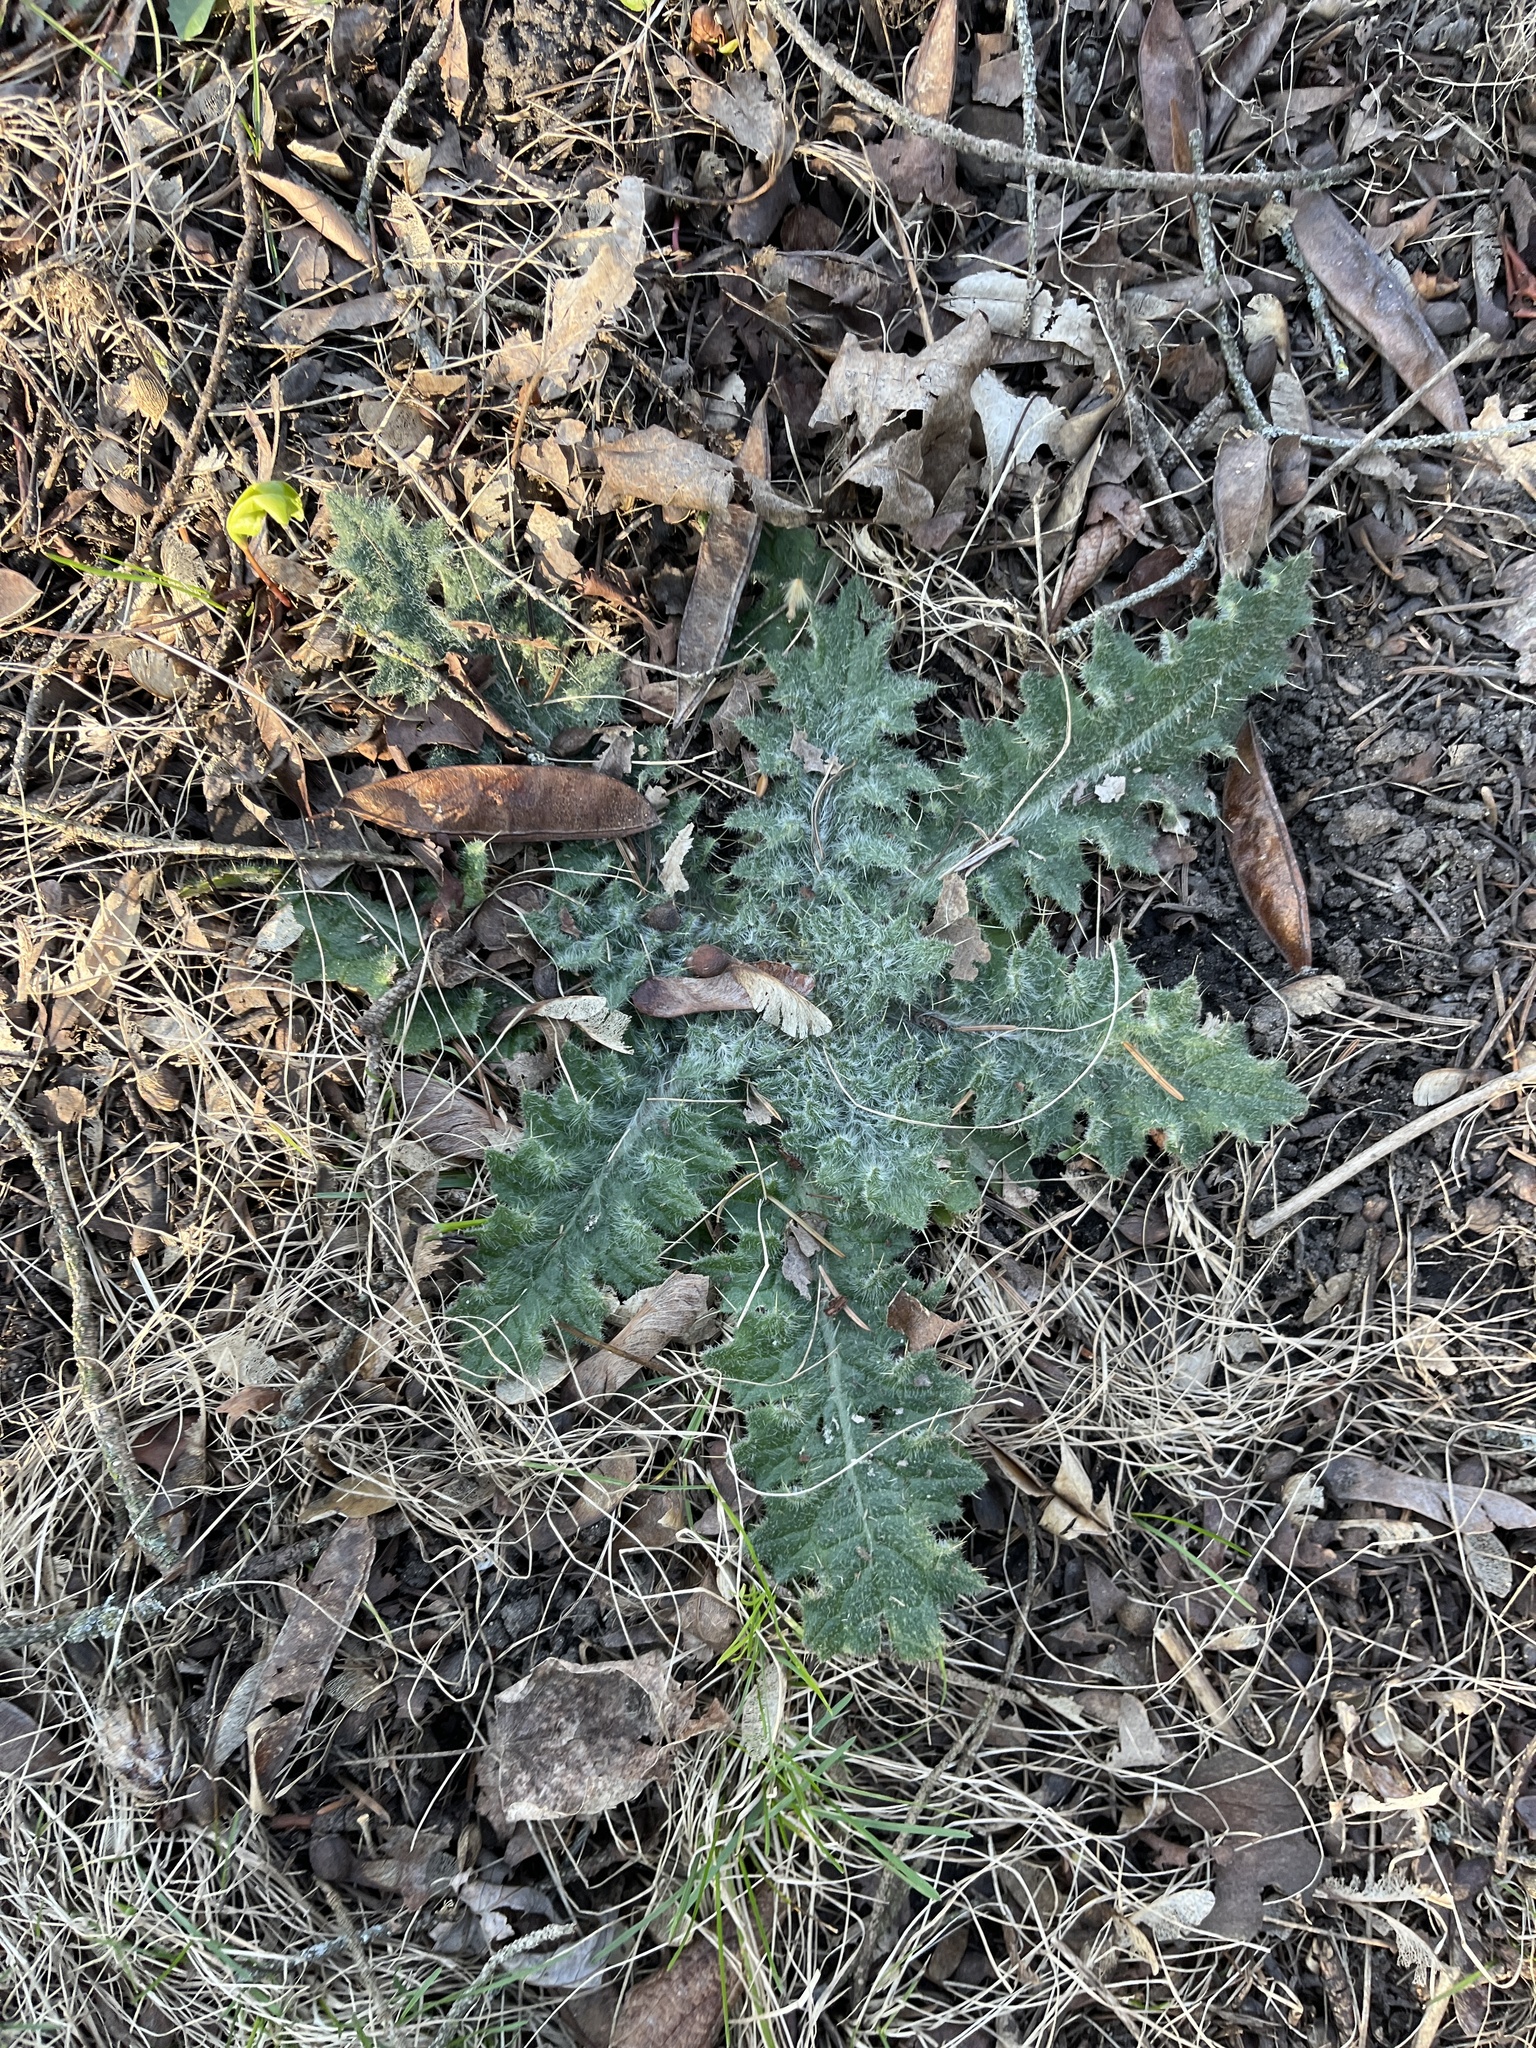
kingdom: Plantae
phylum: Tracheophyta
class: Magnoliopsida
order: Asterales
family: Asteraceae
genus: Cirsium
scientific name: Cirsium vulgare
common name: Bull thistle
